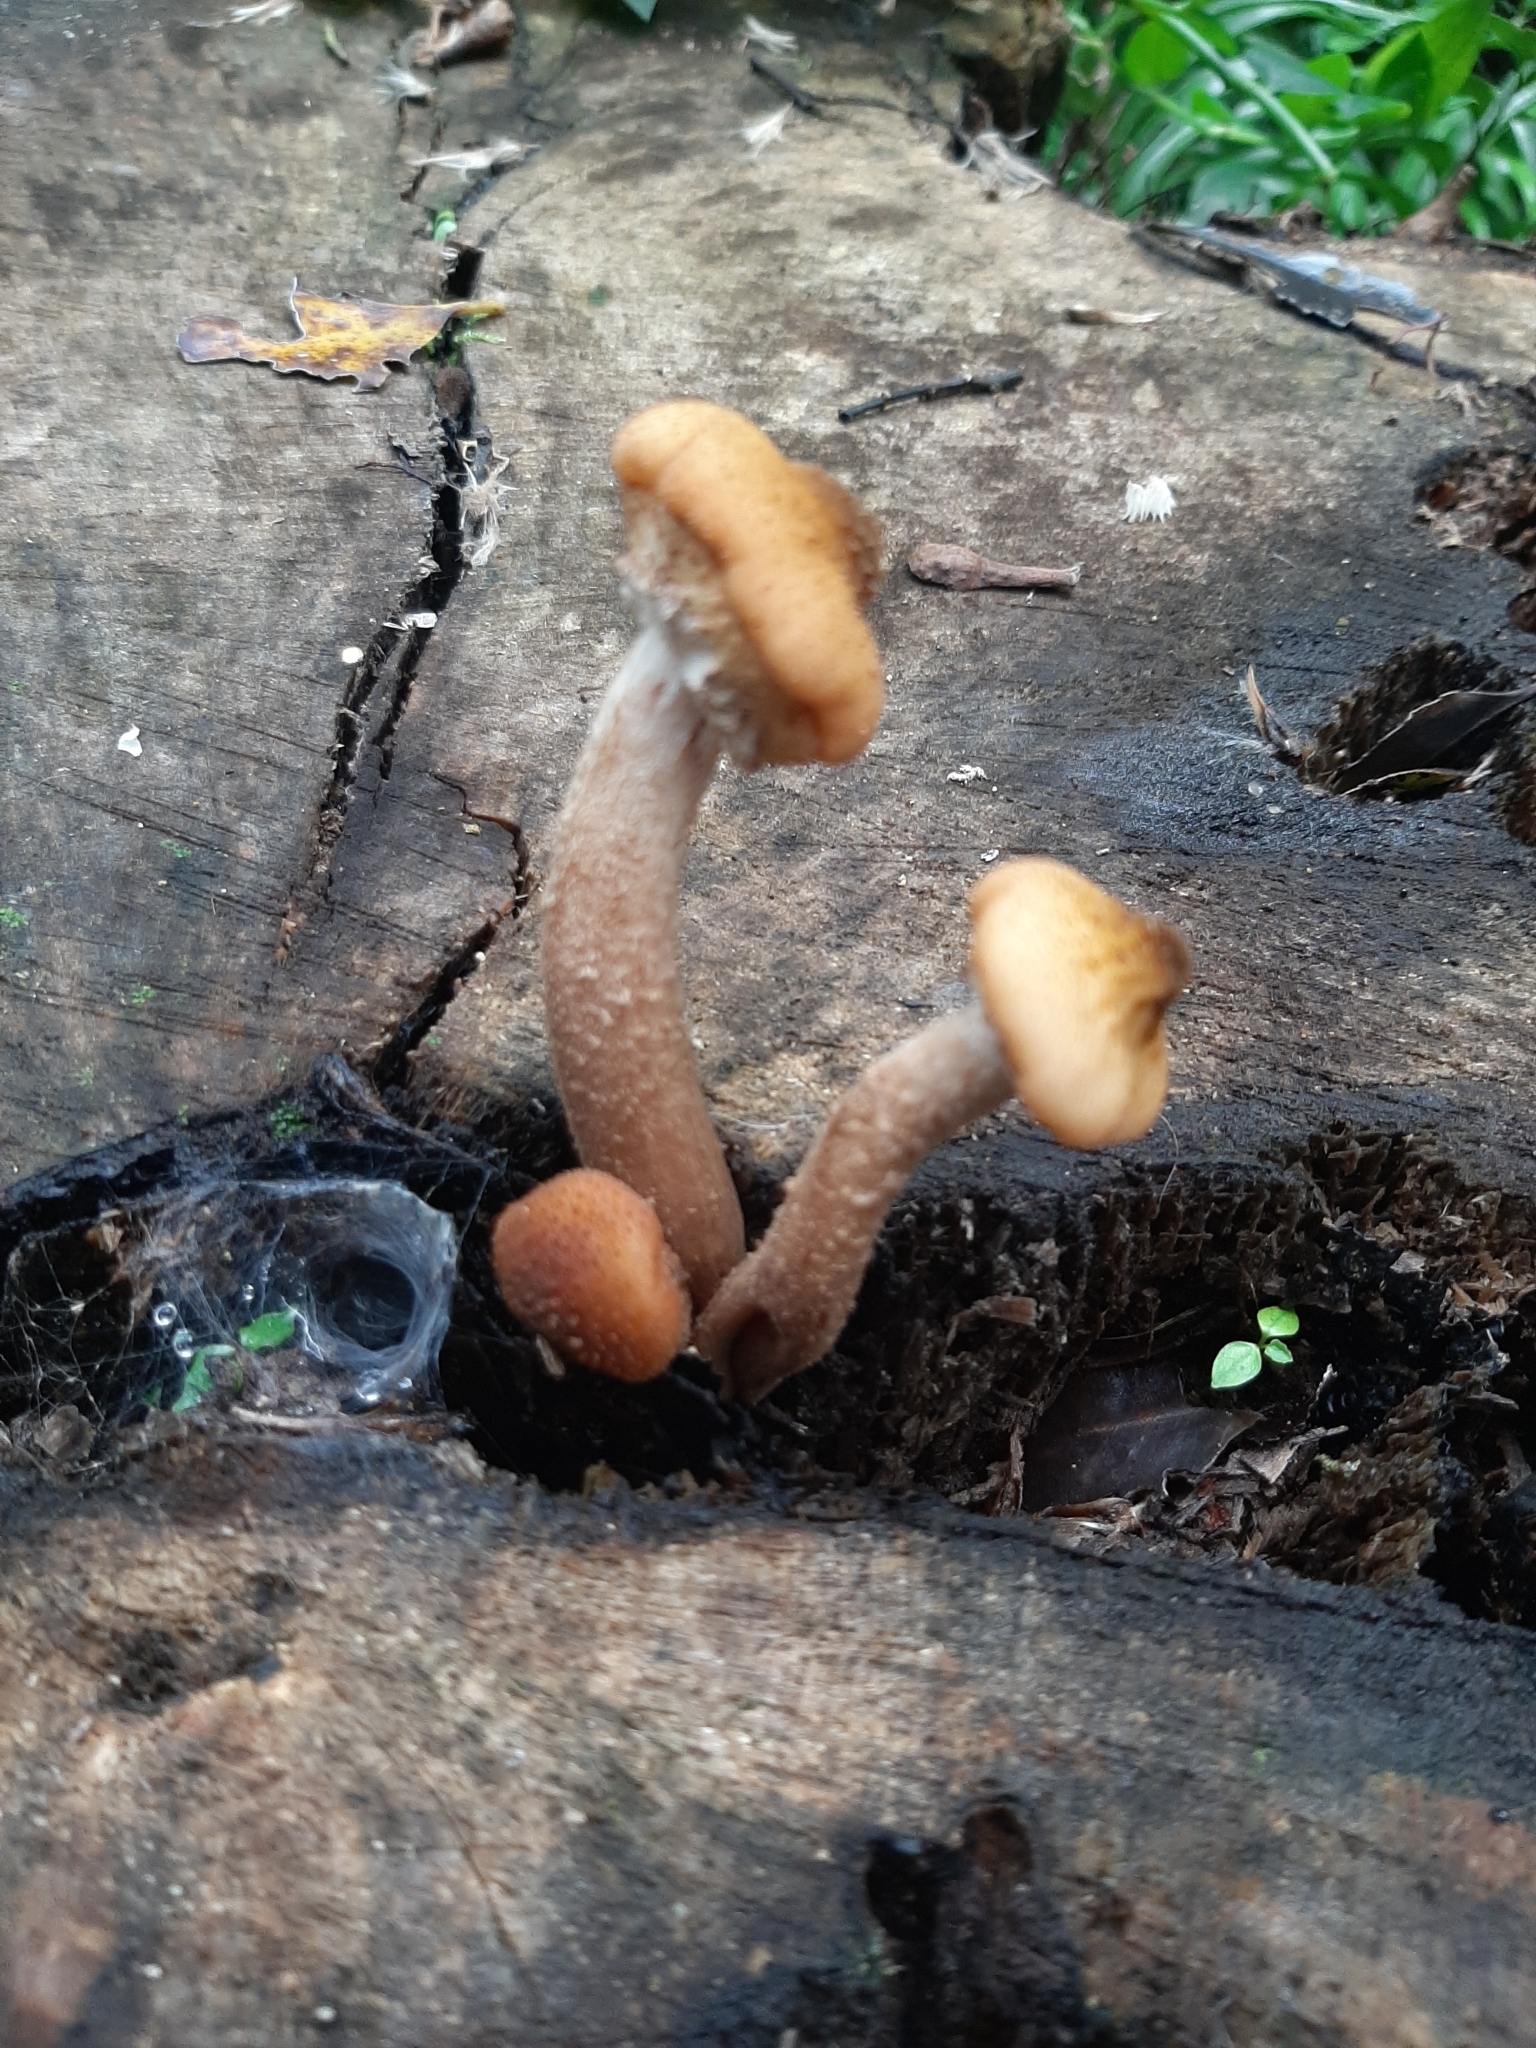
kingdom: Fungi
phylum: Basidiomycota
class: Agaricomycetes
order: Agaricales
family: Physalacriaceae
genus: Armillaria
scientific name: Armillaria limonea
